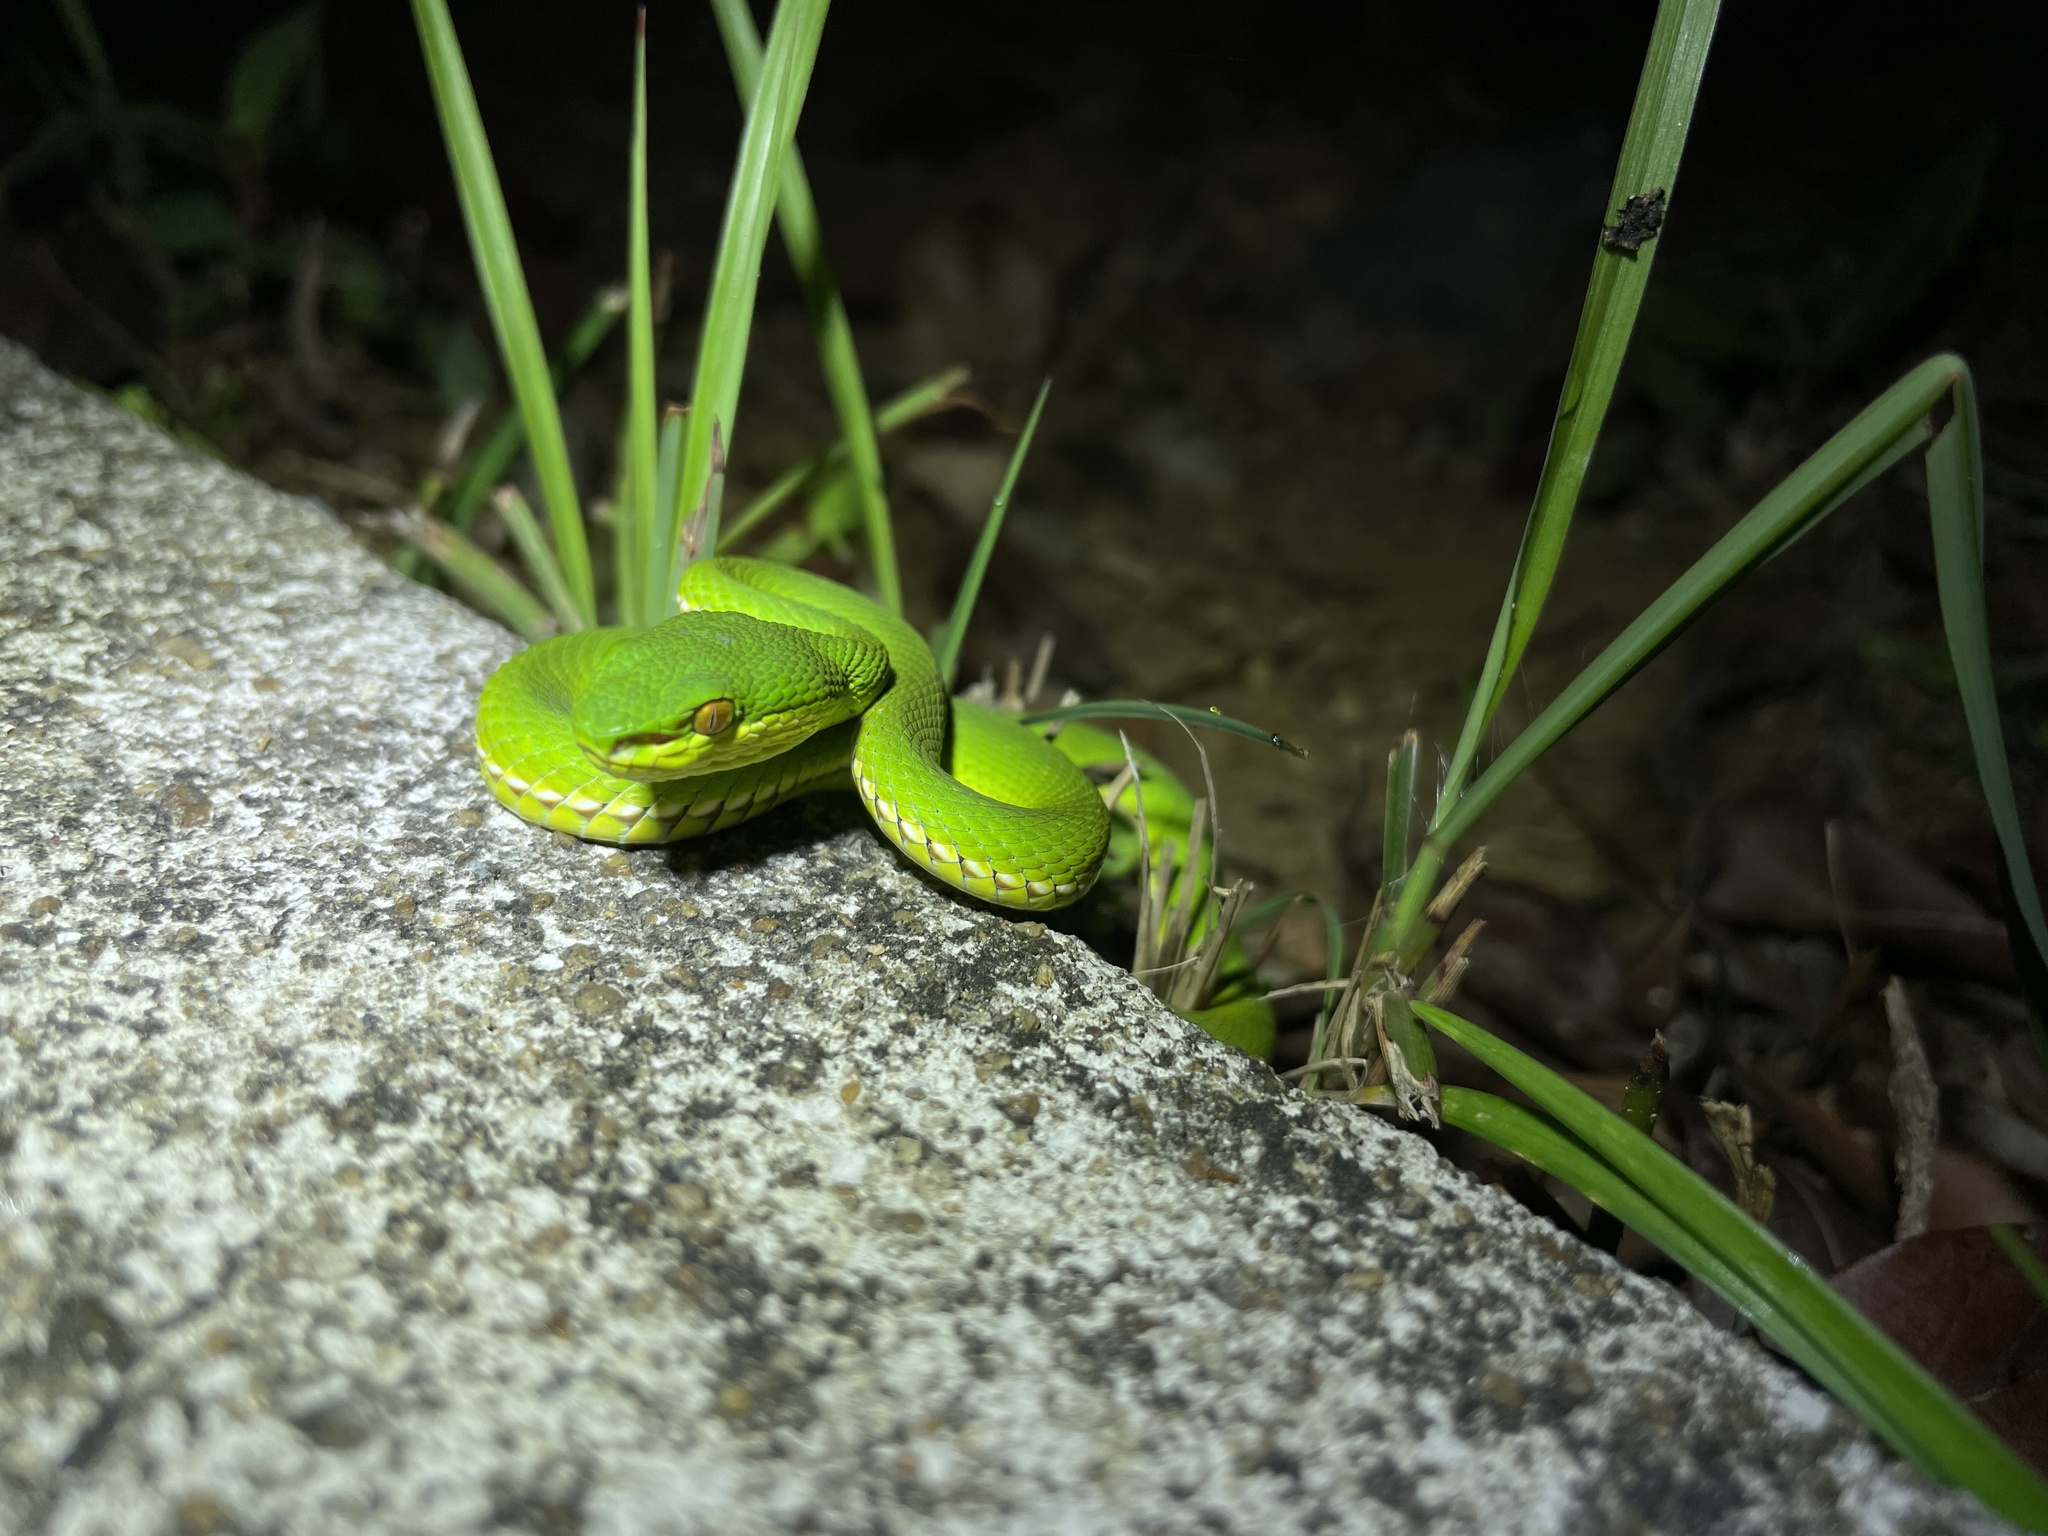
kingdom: Animalia
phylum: Chordata
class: Squamata
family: Viperidae
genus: Trimeresurus
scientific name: Trimeresurus albolabris
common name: White-lipped pitviper
